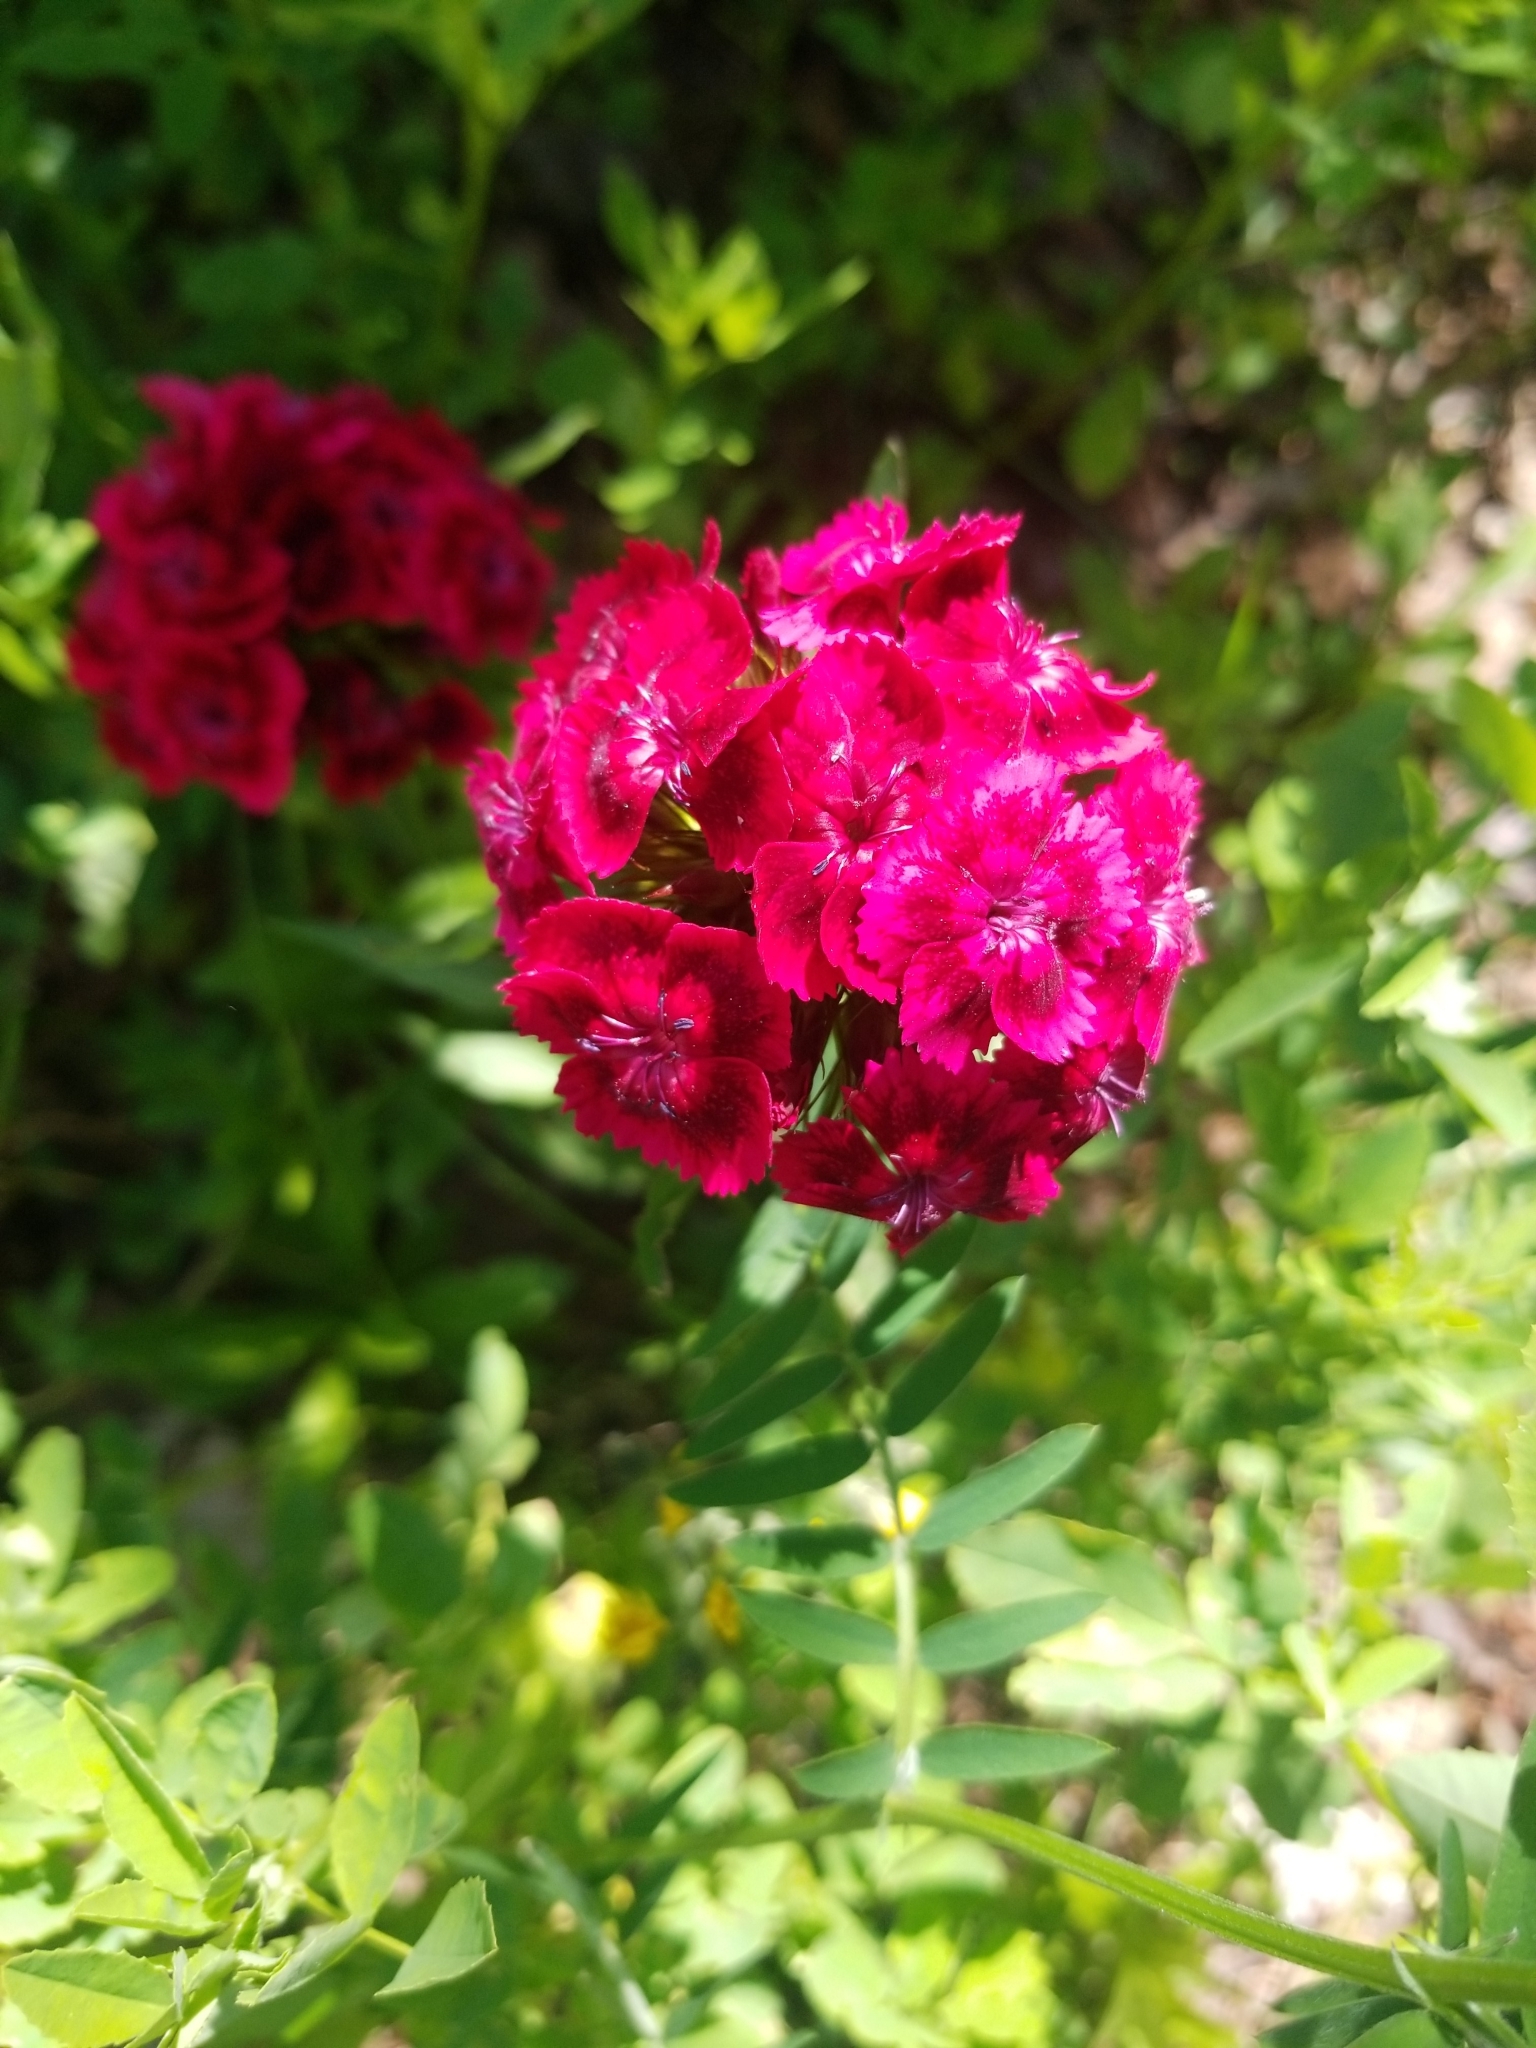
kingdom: Plantae
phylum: Tracheophyta
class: Magnoliopsida
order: Caryophyllales
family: Caryophyllaceae
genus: Dianthus
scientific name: Dianthus barbatus
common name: Sweet-william
